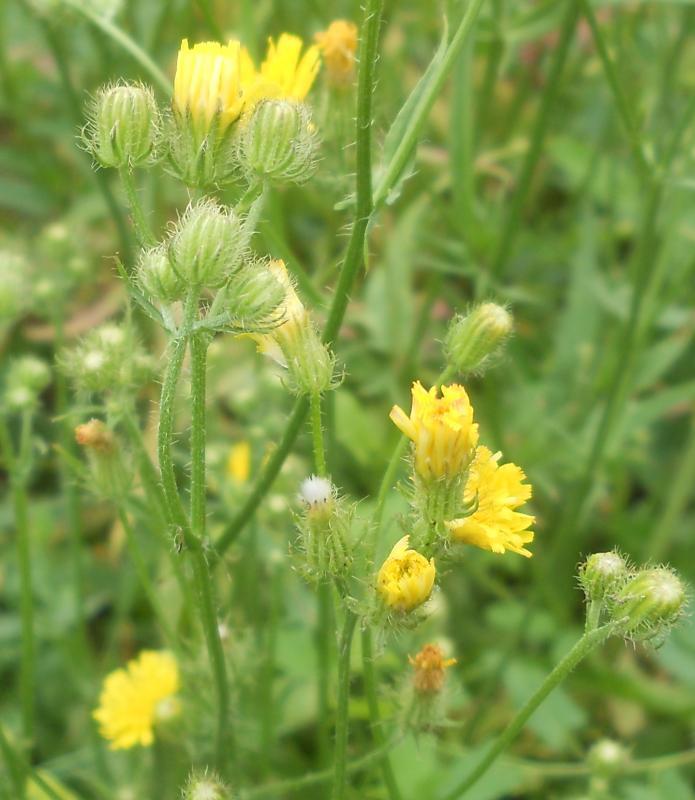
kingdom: Plantae
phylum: Tracheophyta
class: Magnoliopsida
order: Asterales
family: Asteraceae
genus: Crepis
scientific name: Crepis setosa
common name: Bristly hawk's-beard
